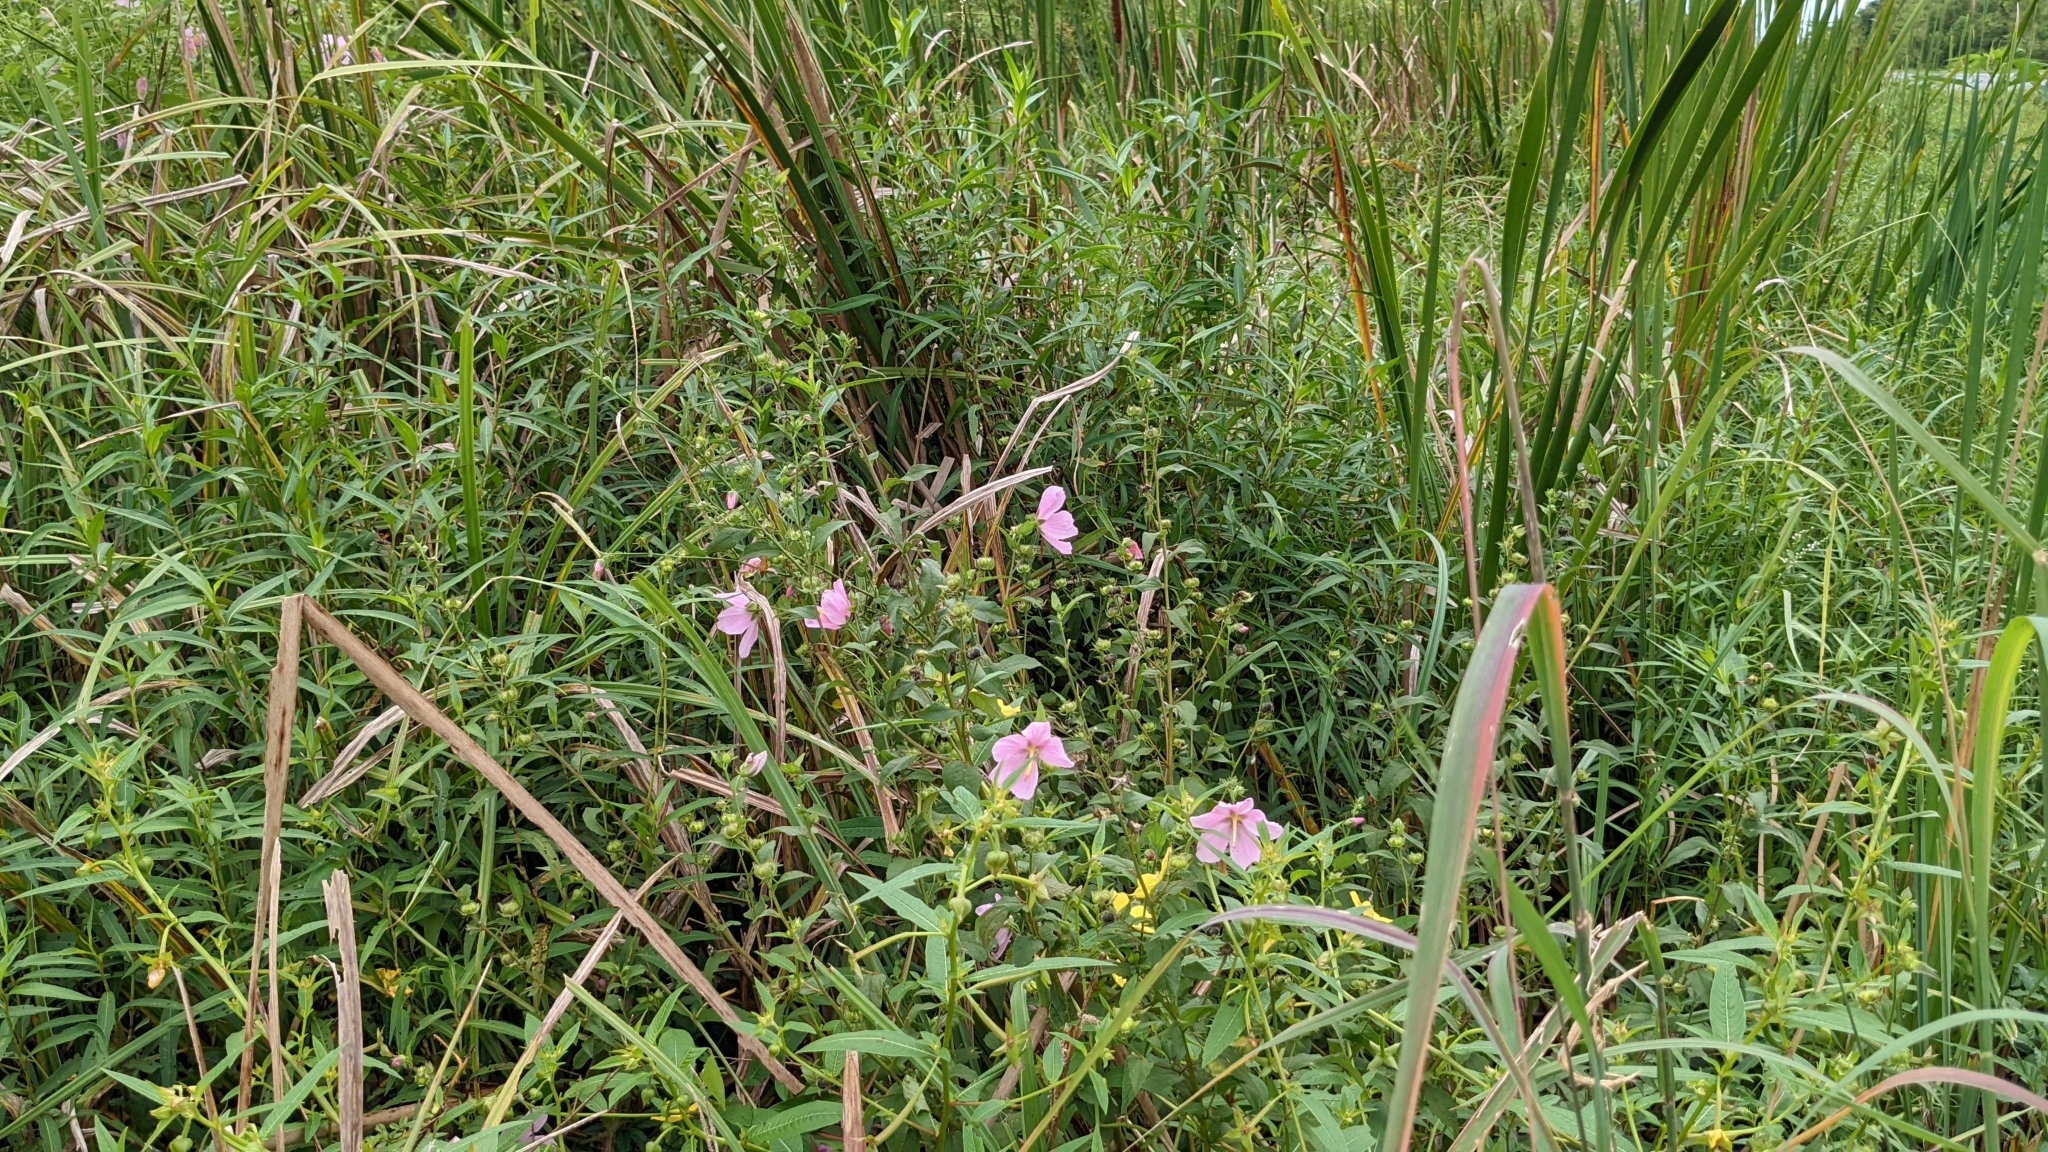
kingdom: Plantae
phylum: Tracheophyta
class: Magnoliopsida
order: Malvales
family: Malvaceae
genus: Kosteletzkya
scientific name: Kosteletzkya pentacarpos
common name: Virginia saltmarsh mallow
